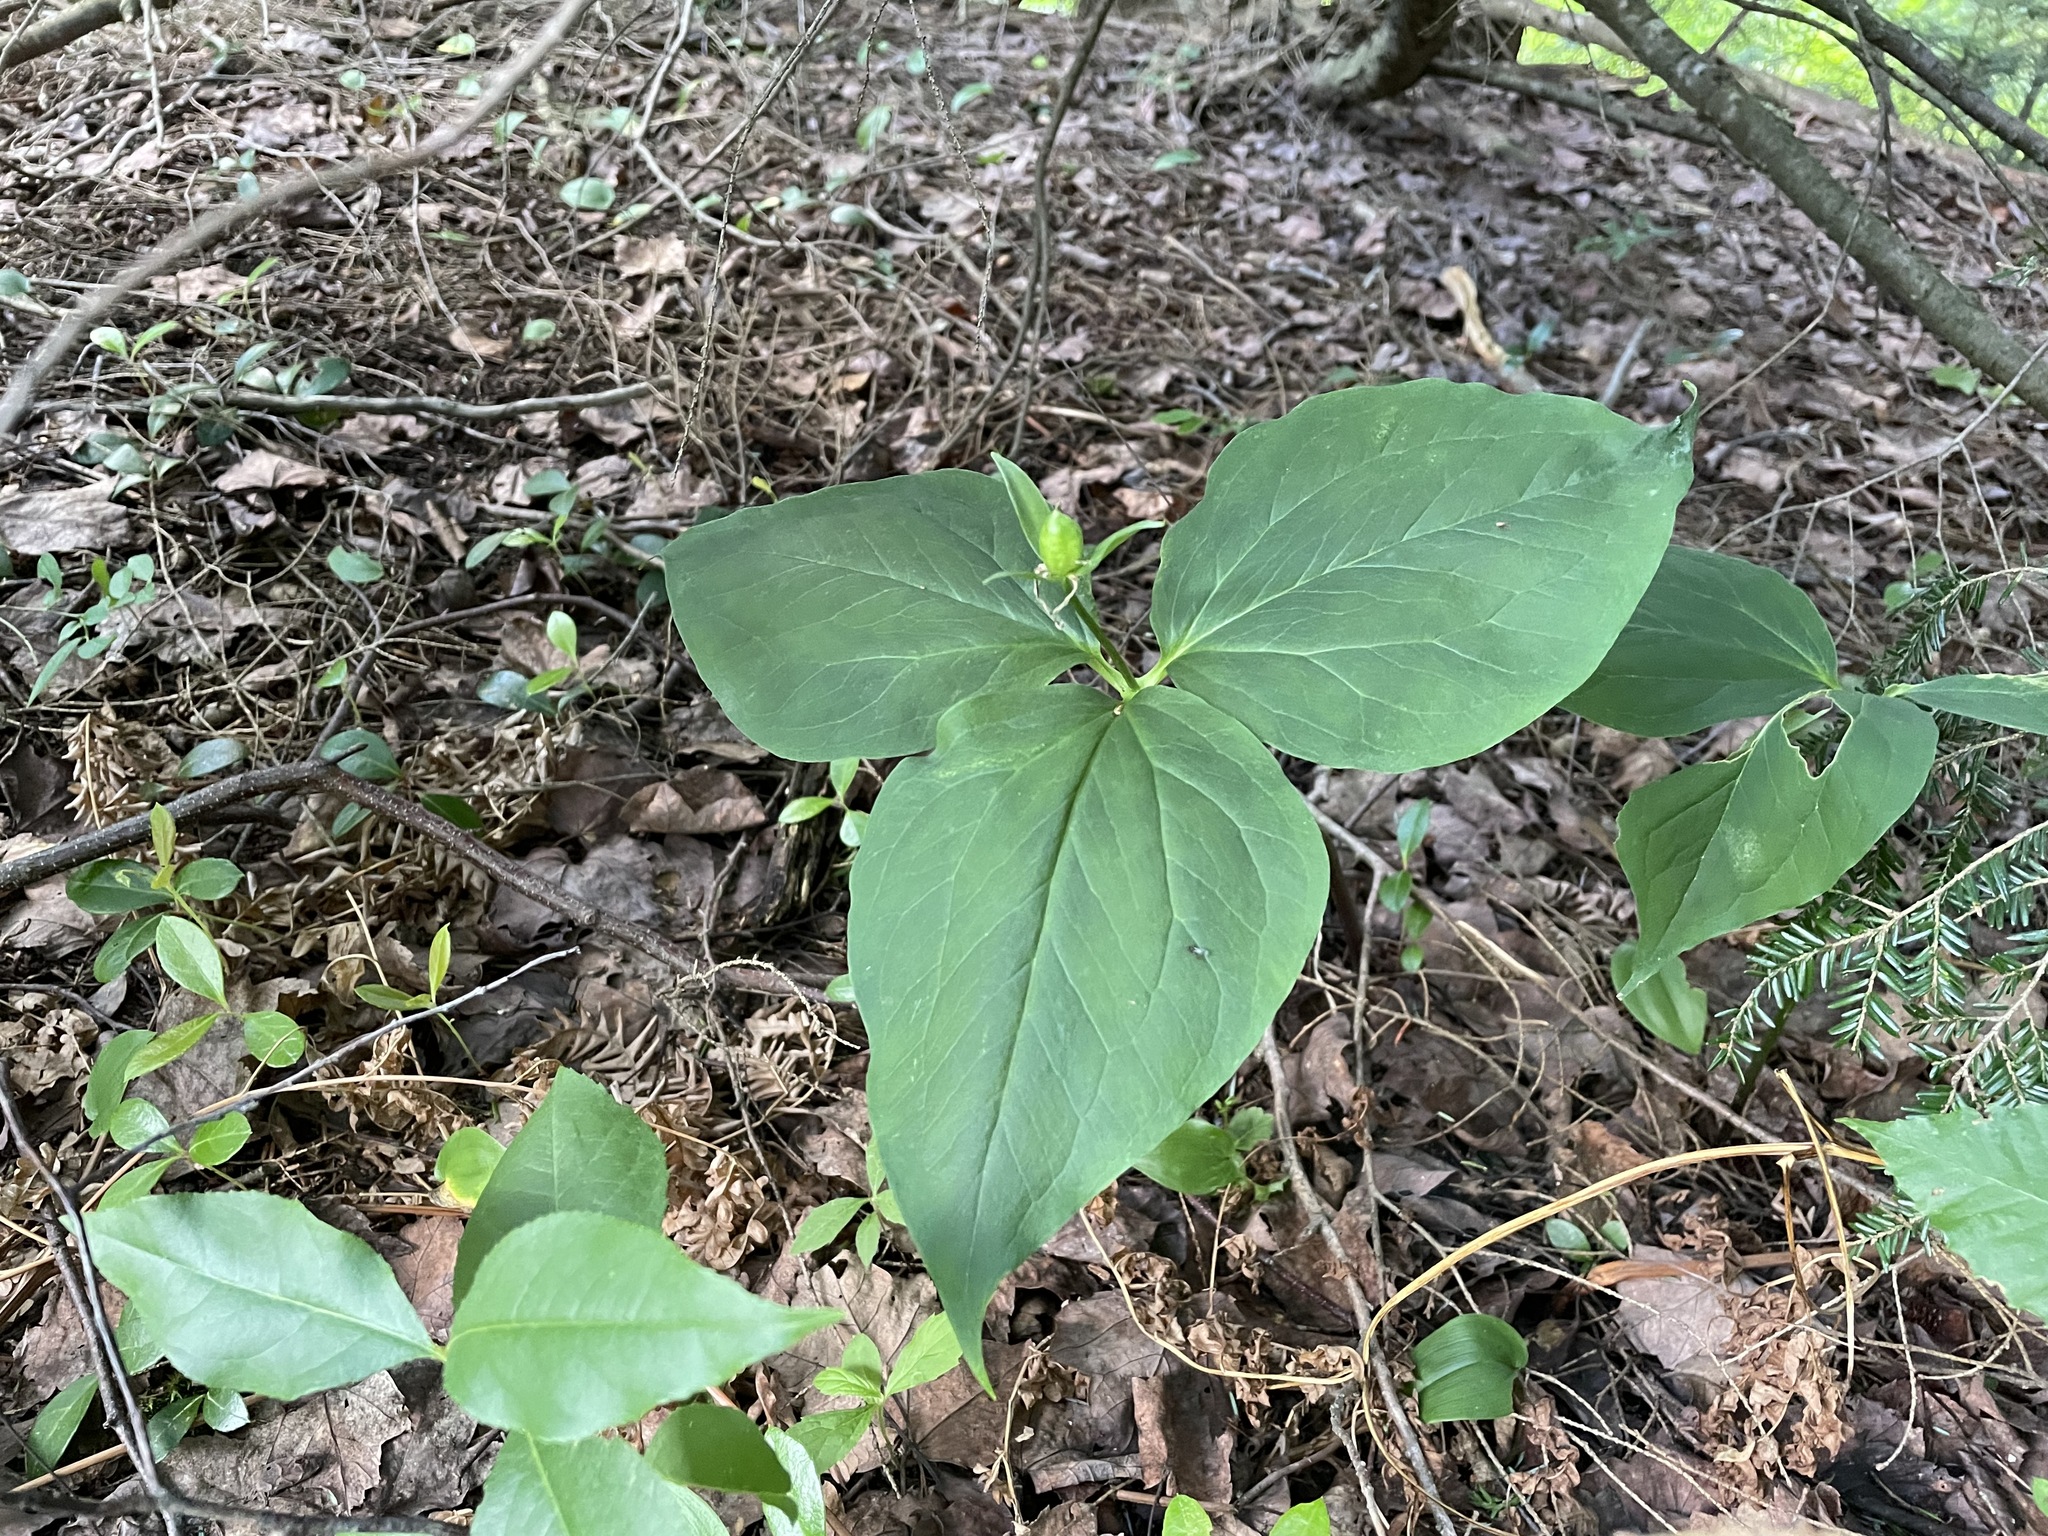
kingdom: Plantae
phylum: Tracheophyta
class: Liliopsida
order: Liliales
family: Melanthiaceae
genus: Trillium
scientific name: Trillium undulatum
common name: Paint trillium
